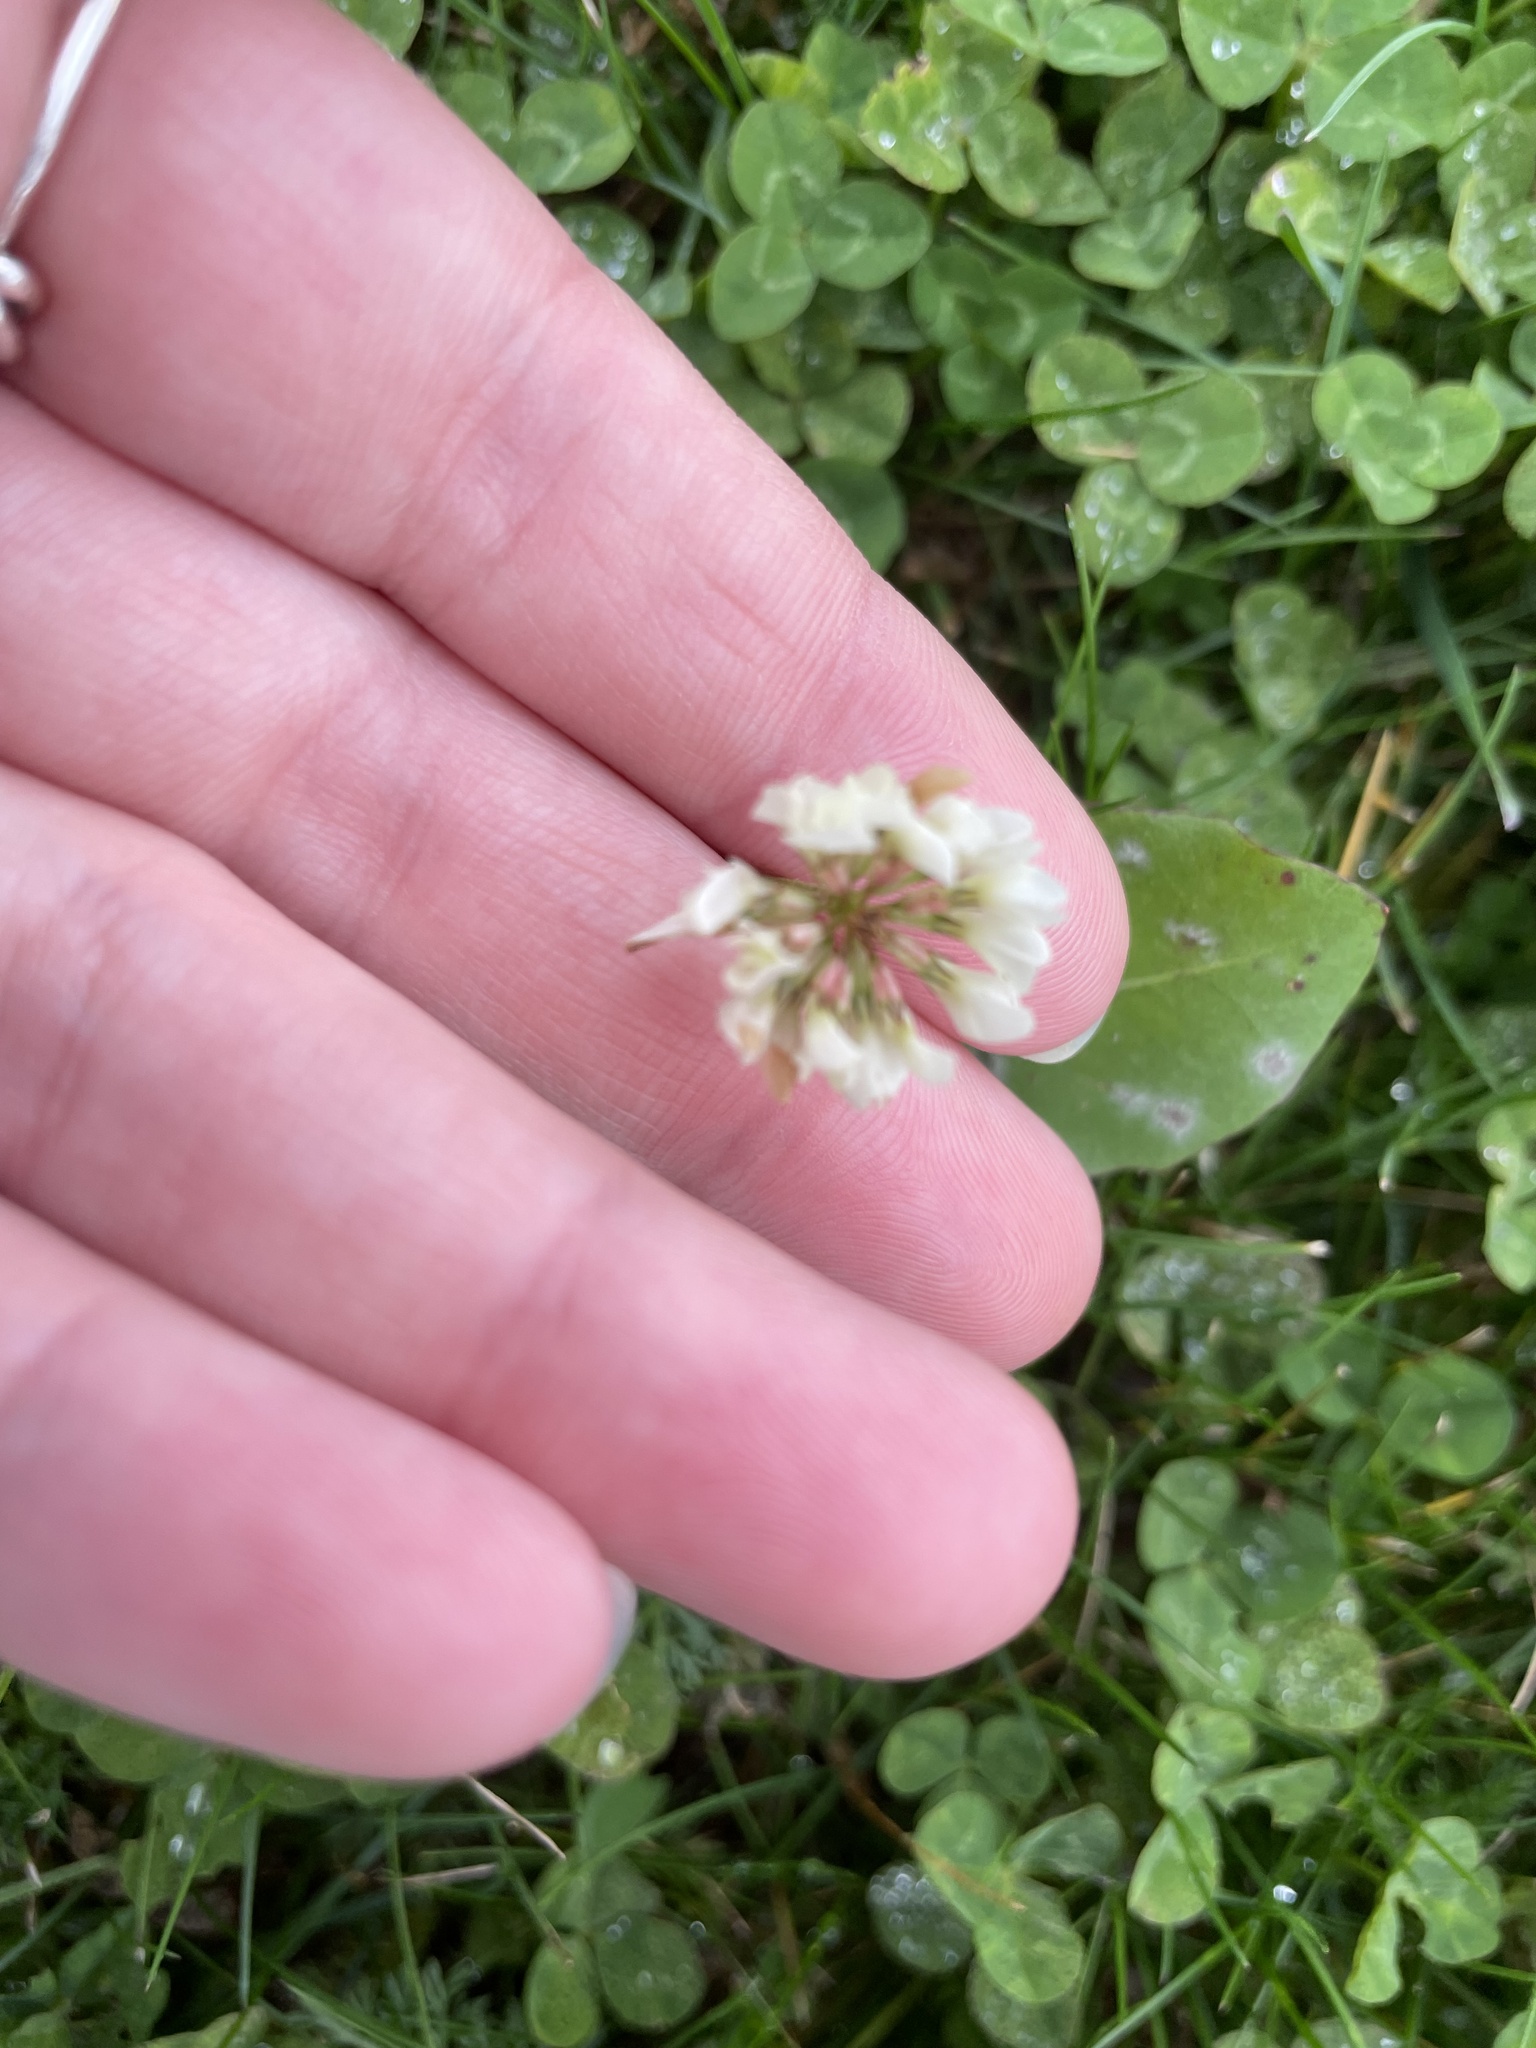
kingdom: Plantae
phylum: Tracheophyta
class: Magnoliopsida
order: Fabales
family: Fabaceae
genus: Trifolium
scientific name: Trifolium repens
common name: White clover
